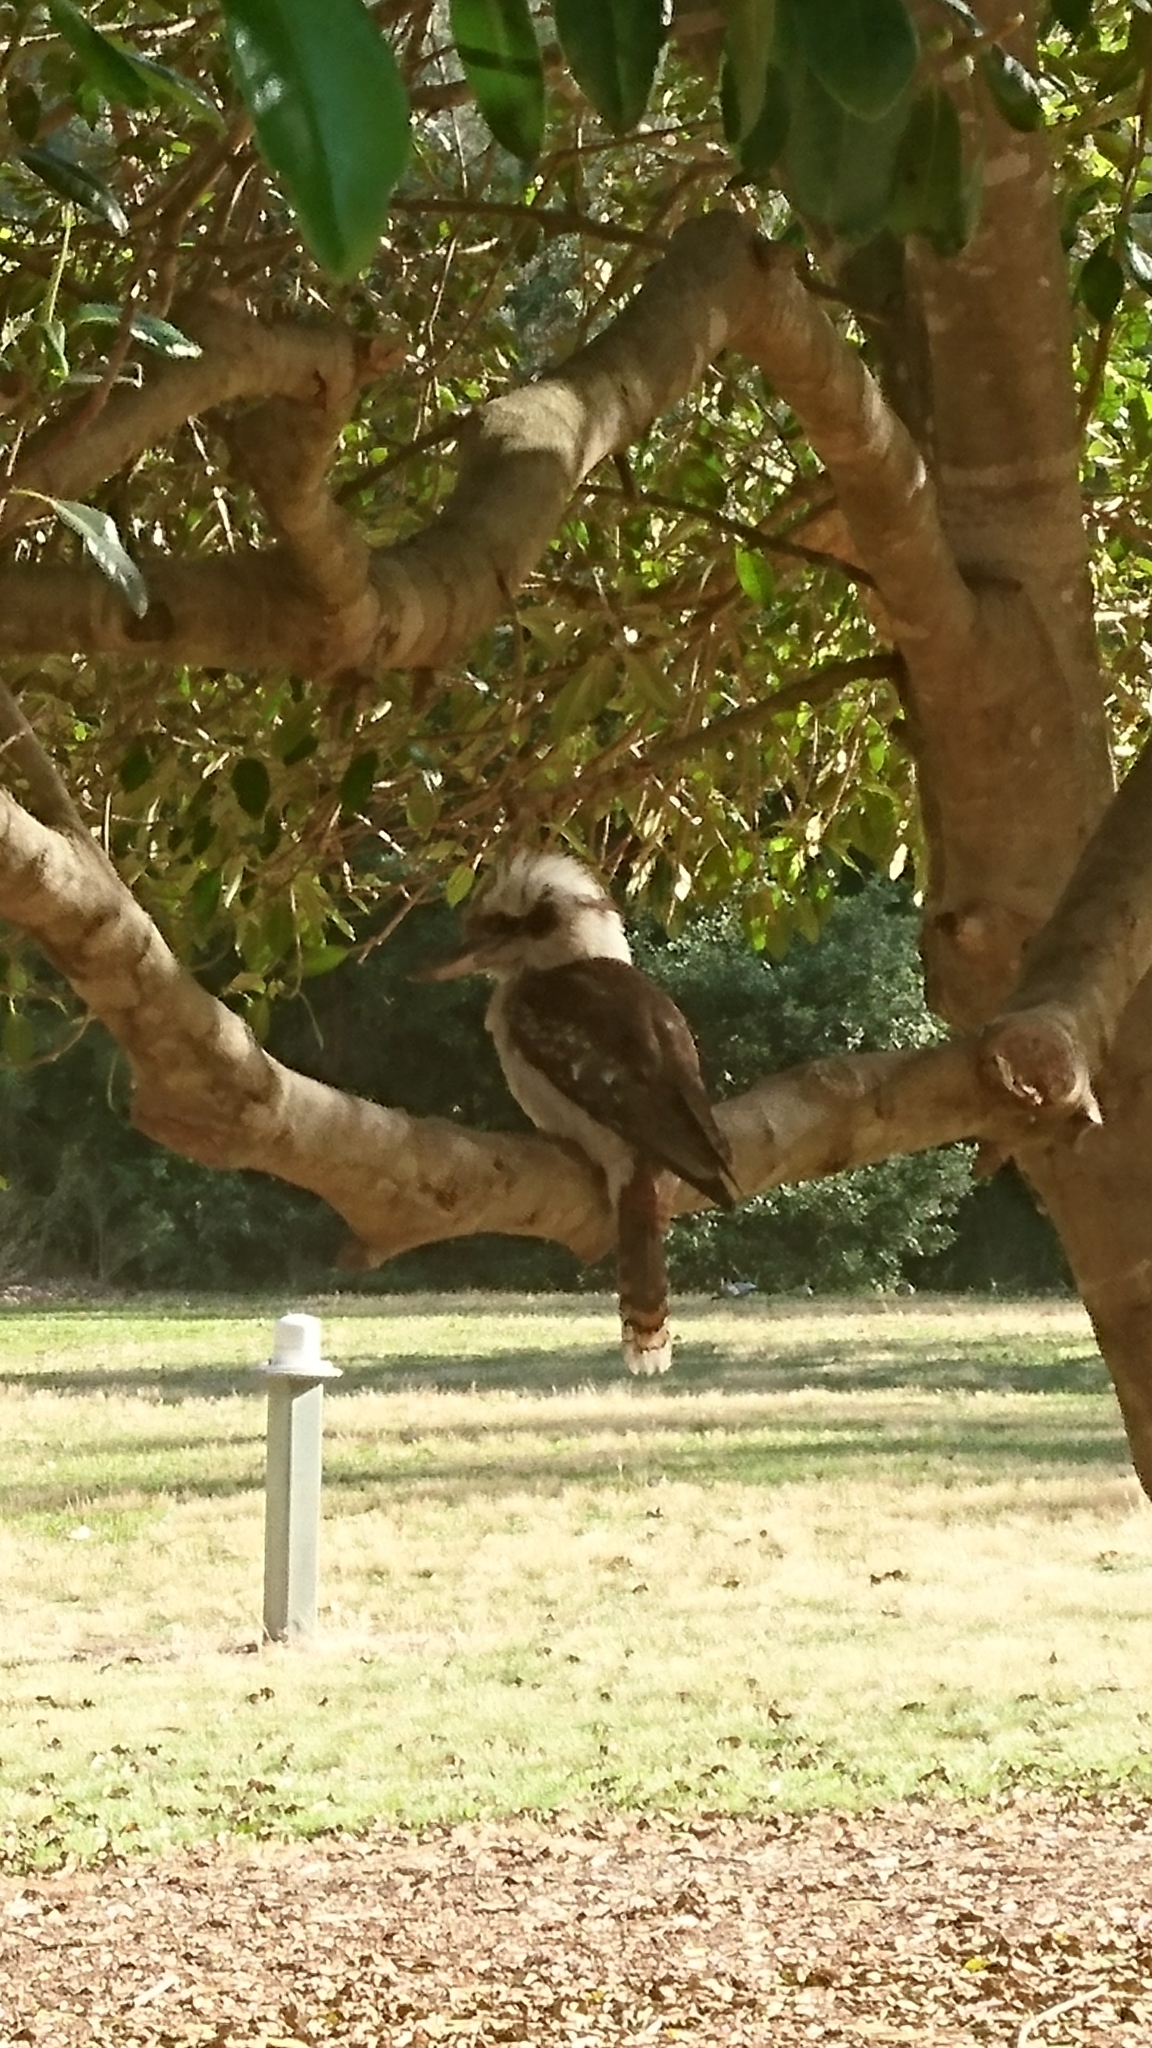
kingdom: Animalia
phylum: Chordata
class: Aves
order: Coraciiformes
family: Alcedinidae
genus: Dacelo
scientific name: Dacelo novaeguineae
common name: Laughing kookaburra
